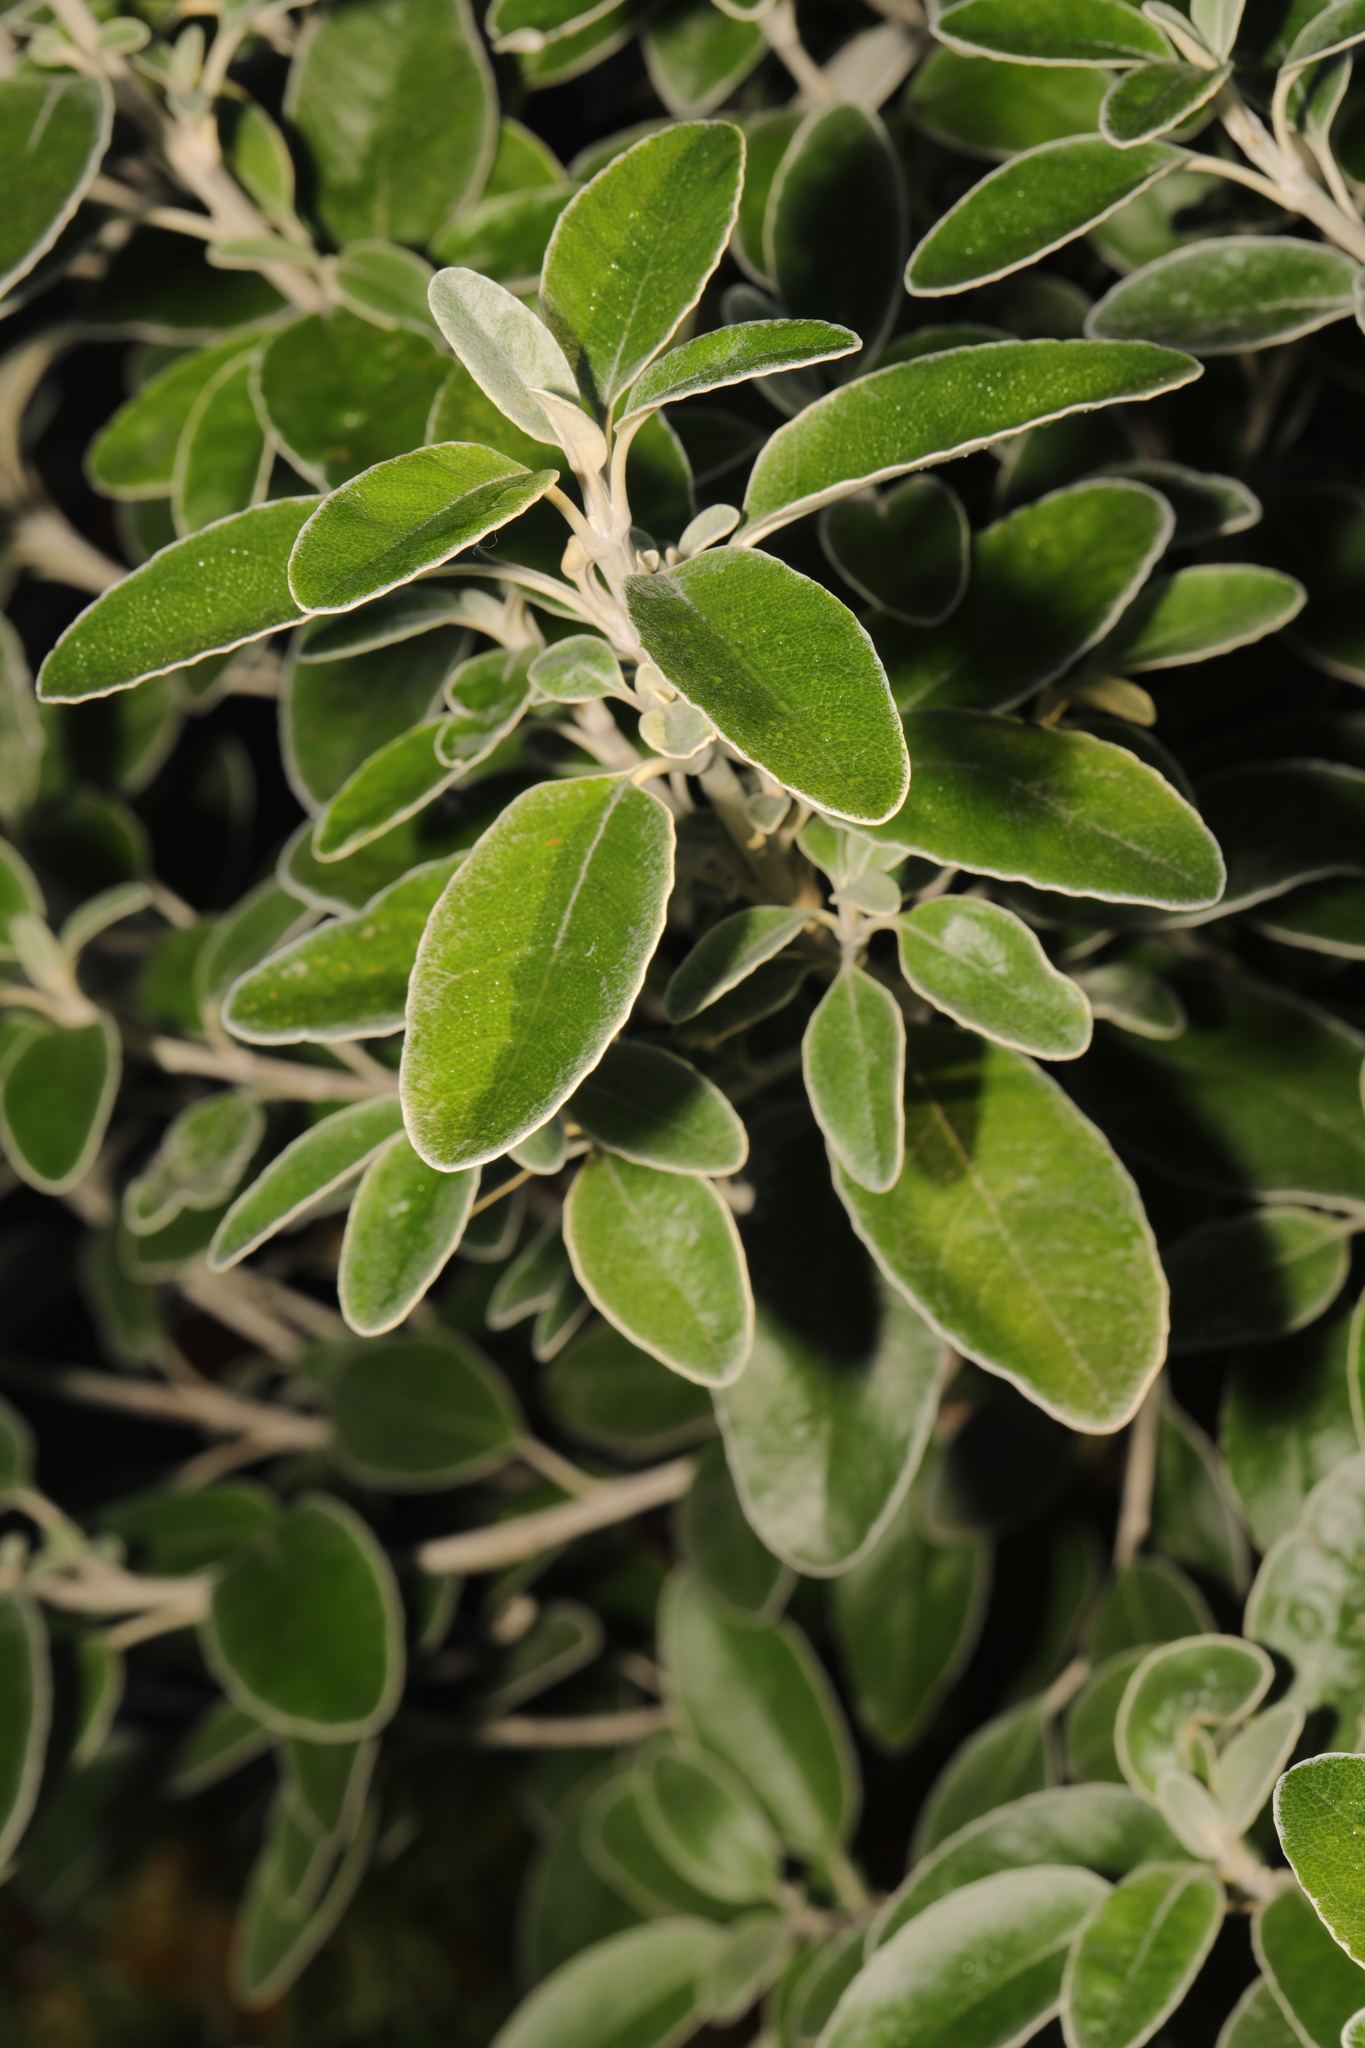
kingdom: Plantae
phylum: Tracheophyta
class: Magnoliopsida
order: Asterales
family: Asteraceae
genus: Brachyglottis
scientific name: Brachyglottis jubar
